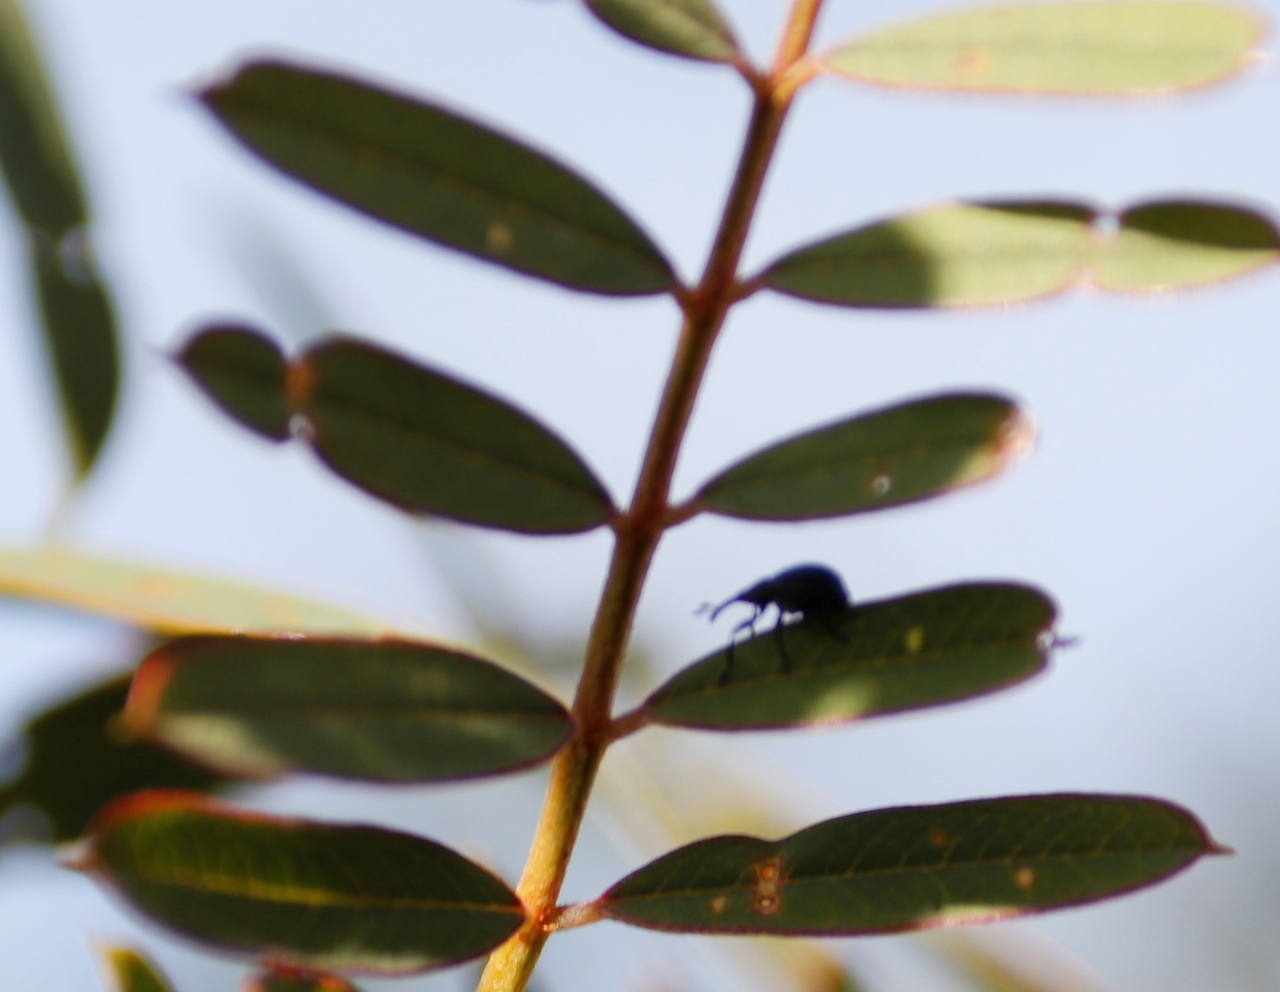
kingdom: Animalia
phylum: Arthropoda
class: Insecta
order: Coleoptera
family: Brentidae
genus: Trichapion
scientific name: Trichapion
